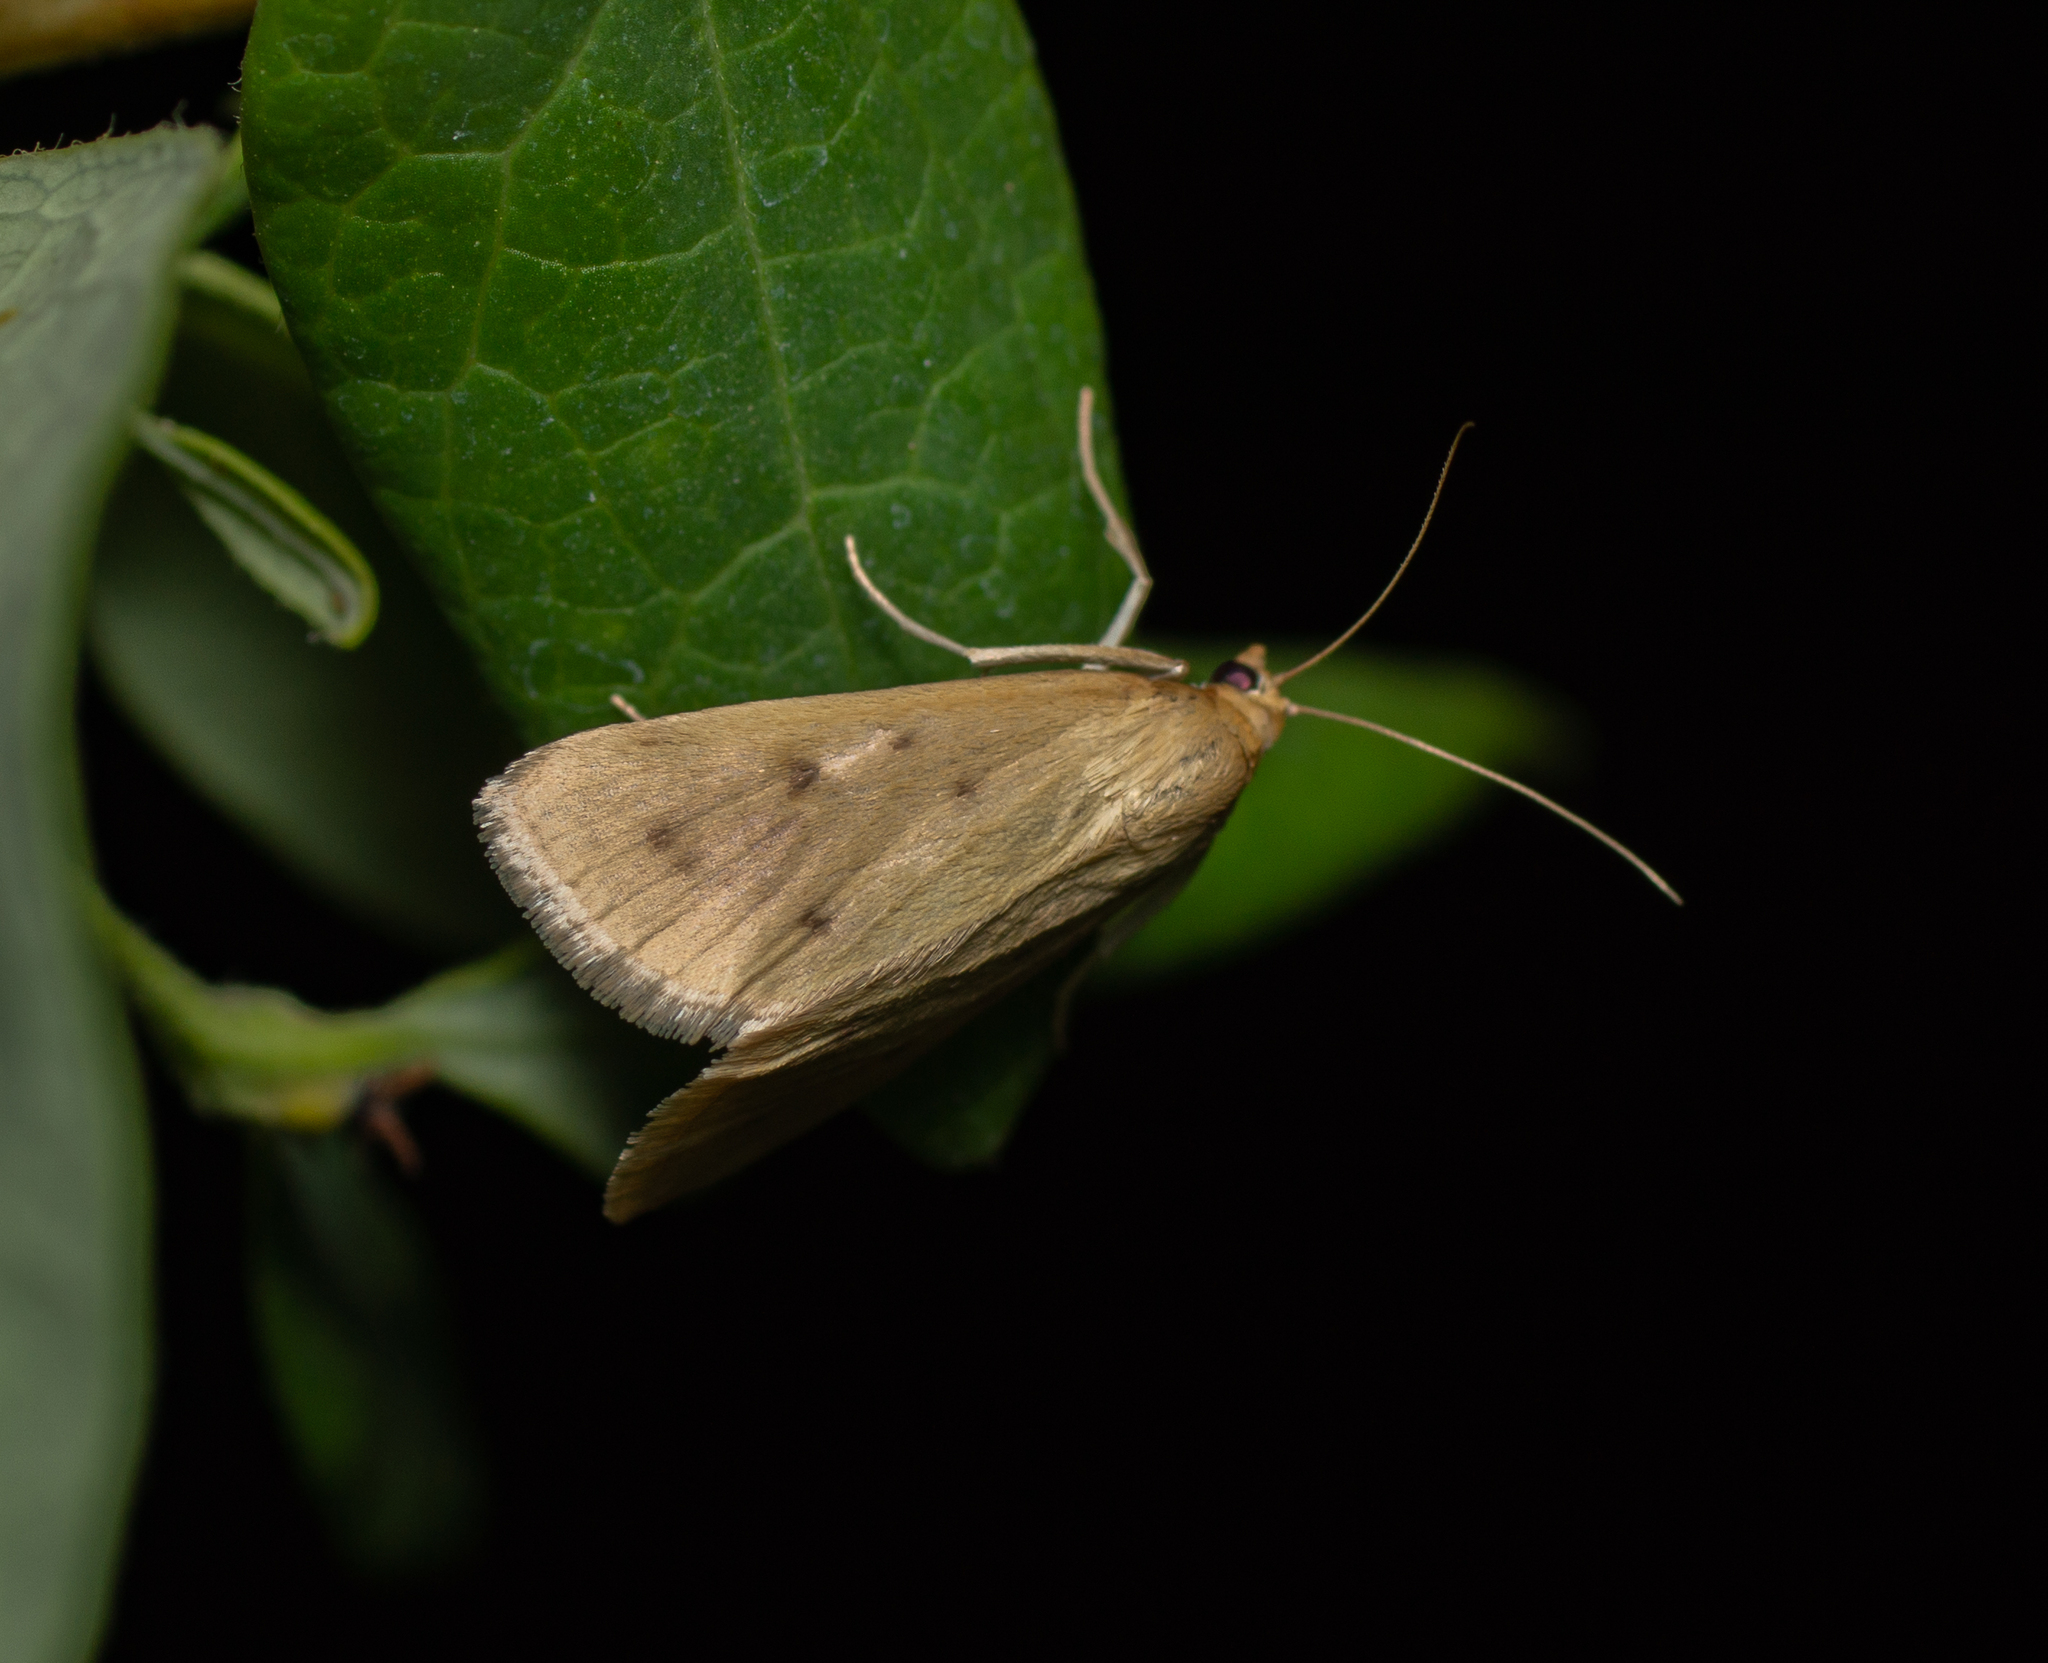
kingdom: Animalia
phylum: Arthropoda
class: Insecta
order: Lepidoptera
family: Crambidae
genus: Achyra
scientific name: Achyra nudalis
